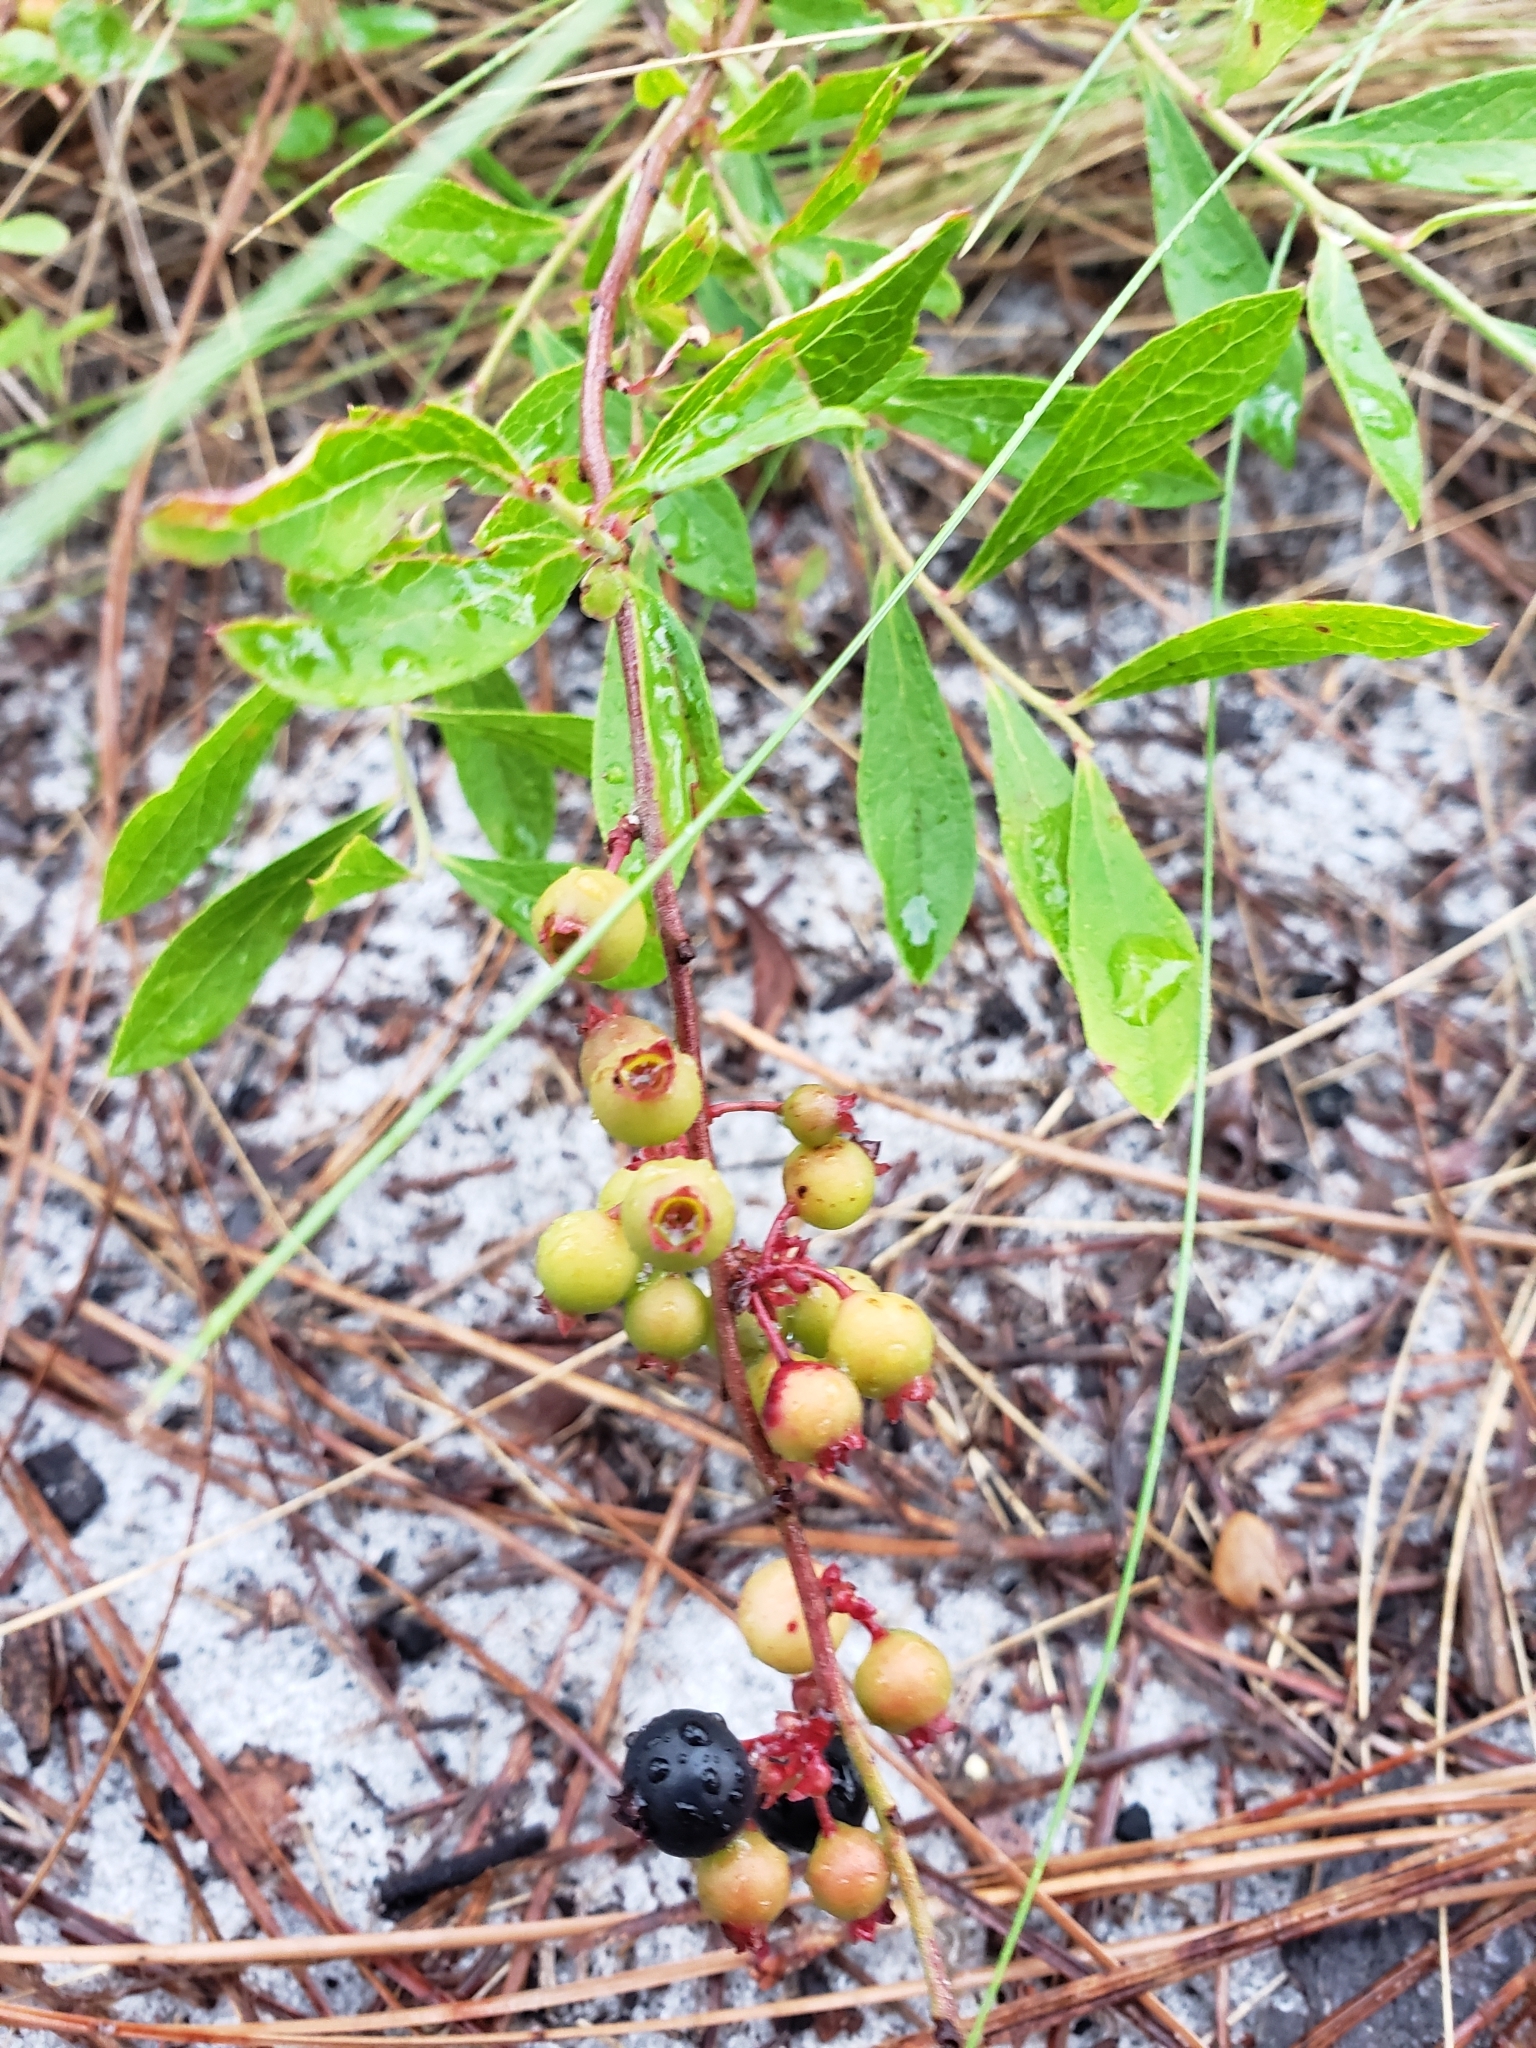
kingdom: Plantae
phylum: Tracheophyta
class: Magnoliopsida
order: Ericales
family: Ericaceae
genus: Gaylussacia
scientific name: Gaylussacia dumosa
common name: Dwarf huckleberry
